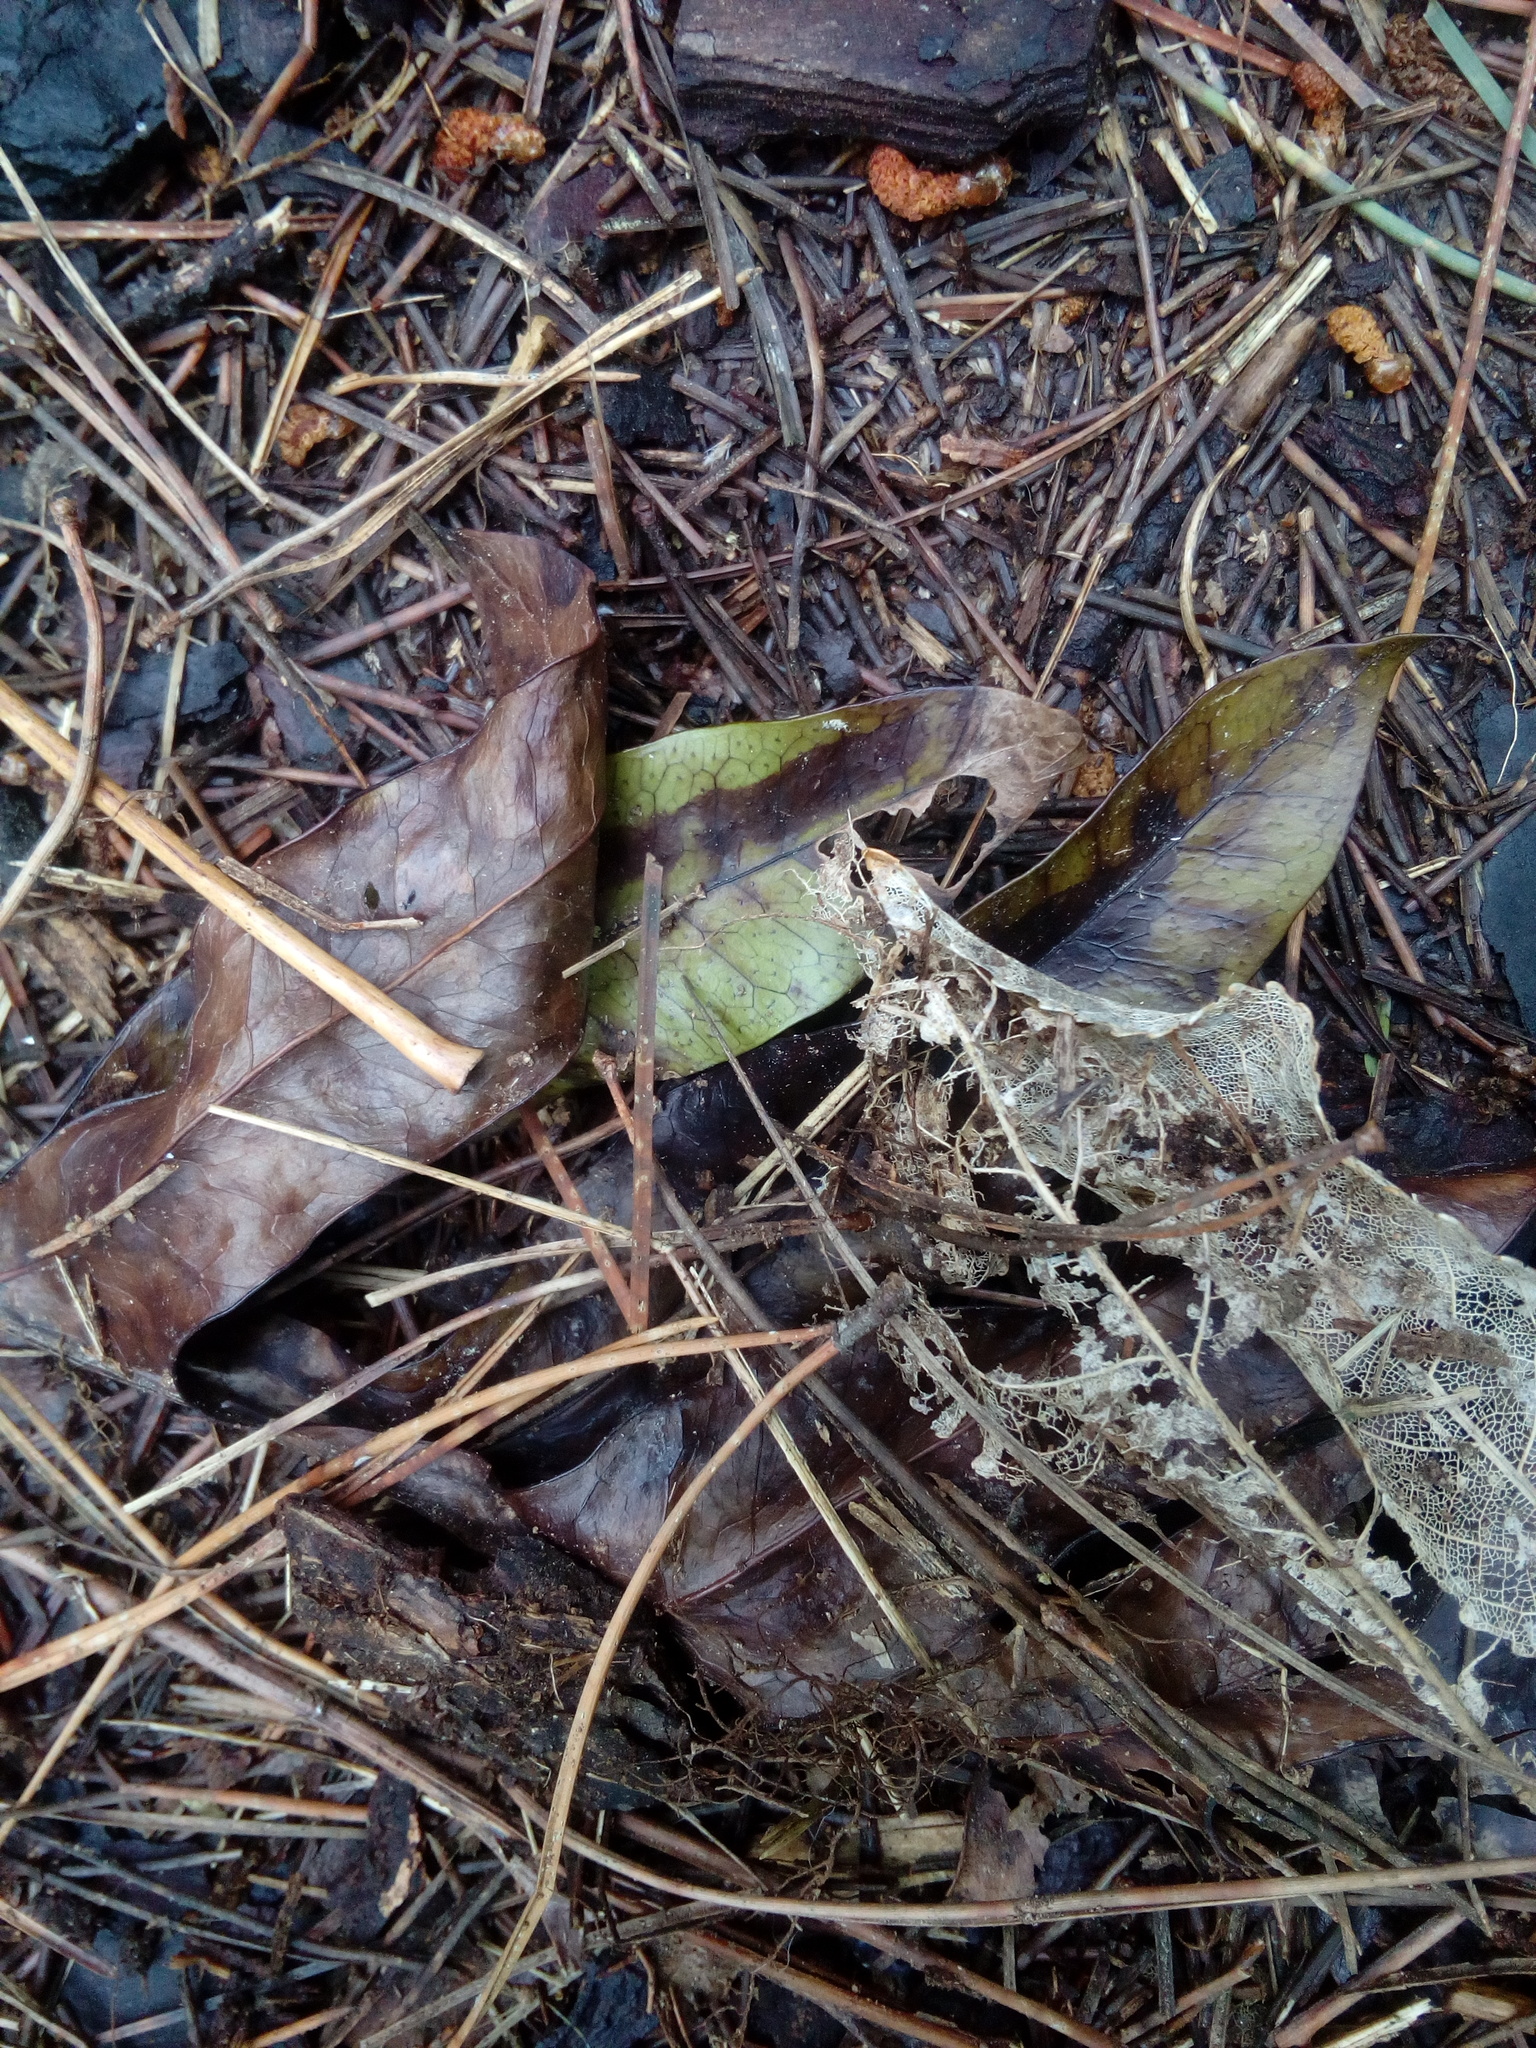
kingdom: Plantae
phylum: Tracheophyta
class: Polypodiopsida
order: Polypodiales
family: Polypodiaceae
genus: Lecanopteris
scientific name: Lecanopteris pustulata
